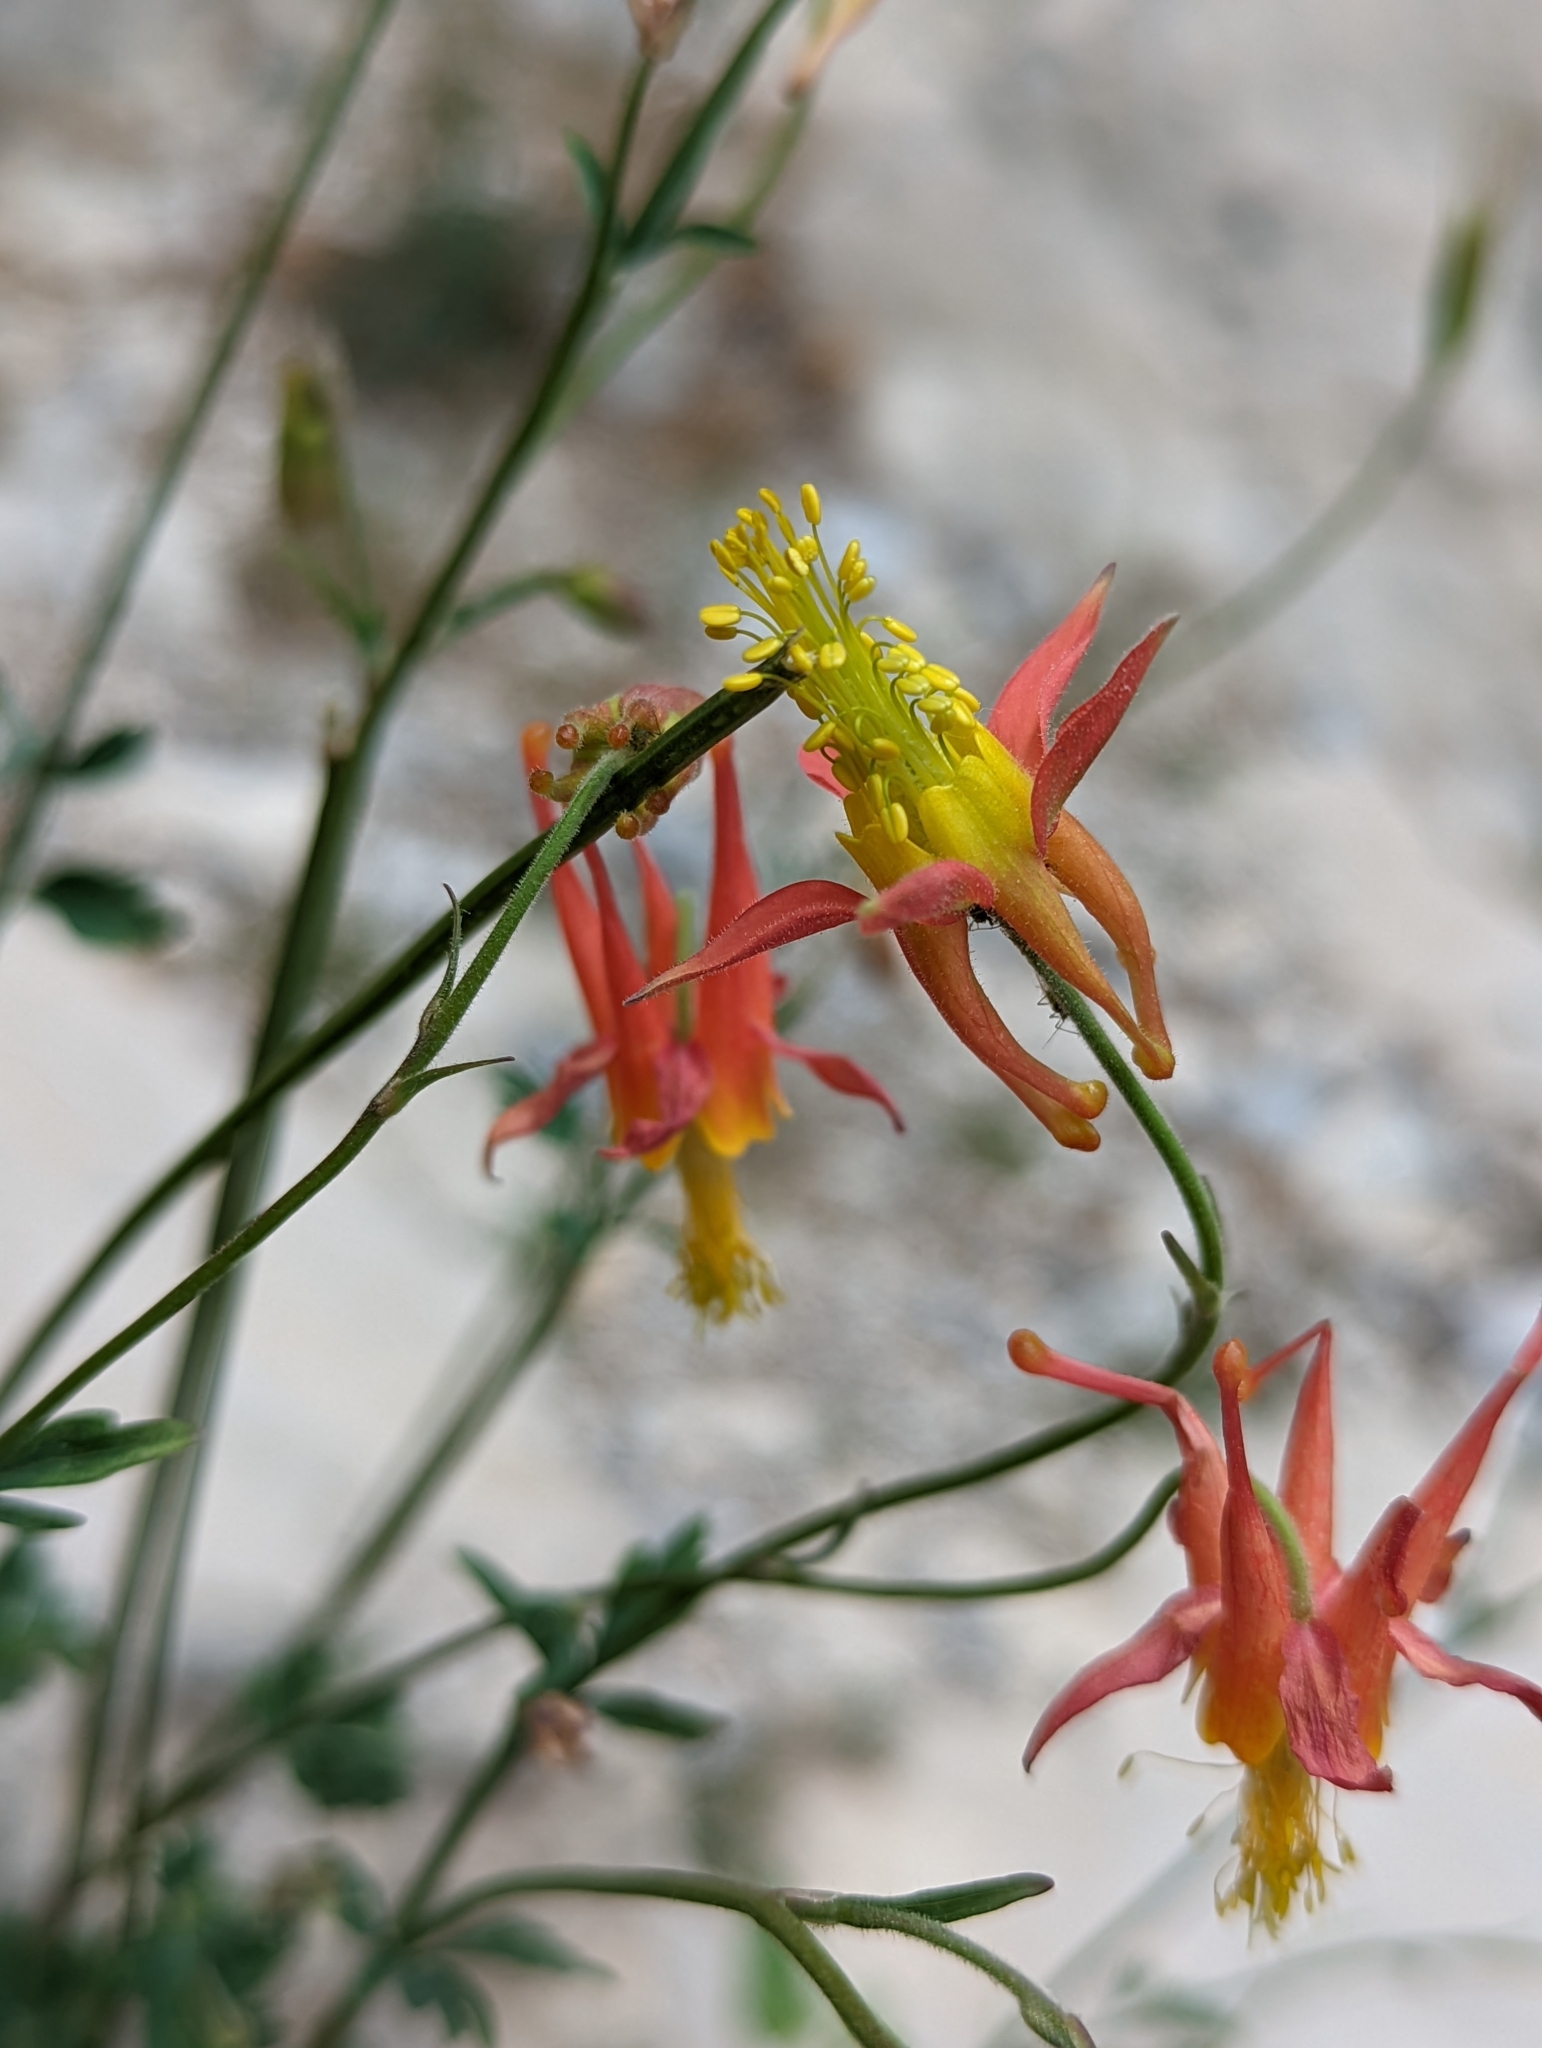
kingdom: Plantae
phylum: Tracheophyta
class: Magnoliopsida
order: Ranunculales
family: Ranunculaceae
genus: Aquilegia
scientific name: Aquilegia formosa
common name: Sitka columbine
